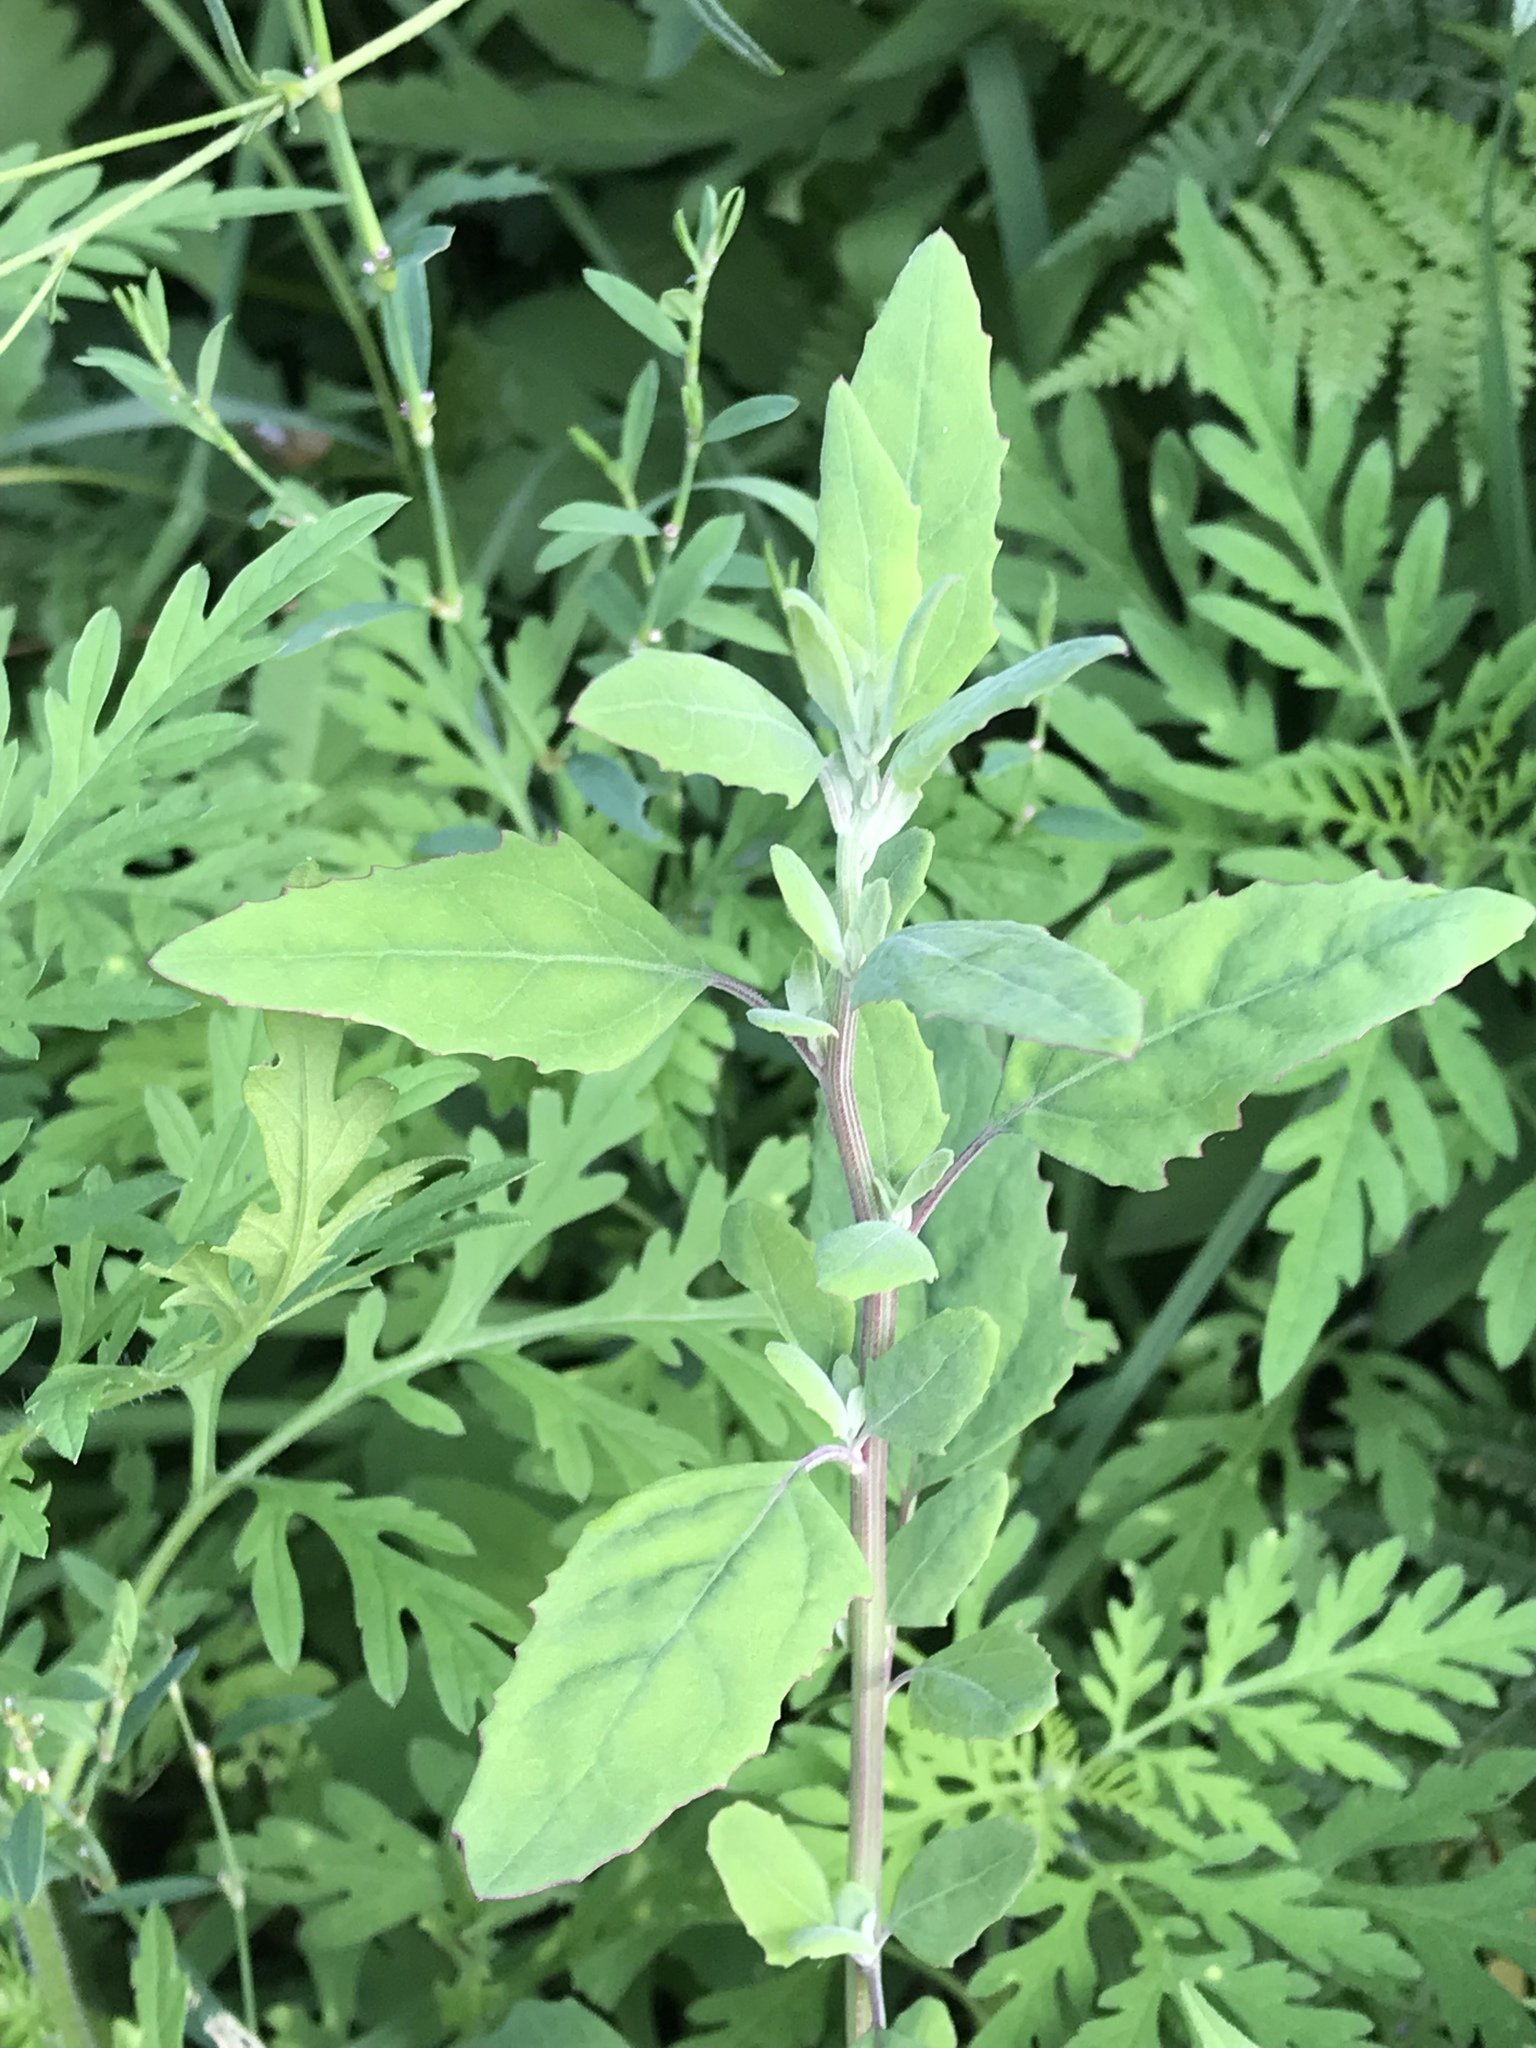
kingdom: Plantae
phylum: Tracheophyta
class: Magnoliopsida
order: Caryophyllales
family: Amaranthaceae
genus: Chenopodium
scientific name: Chenopodium album
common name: Fat-hen
